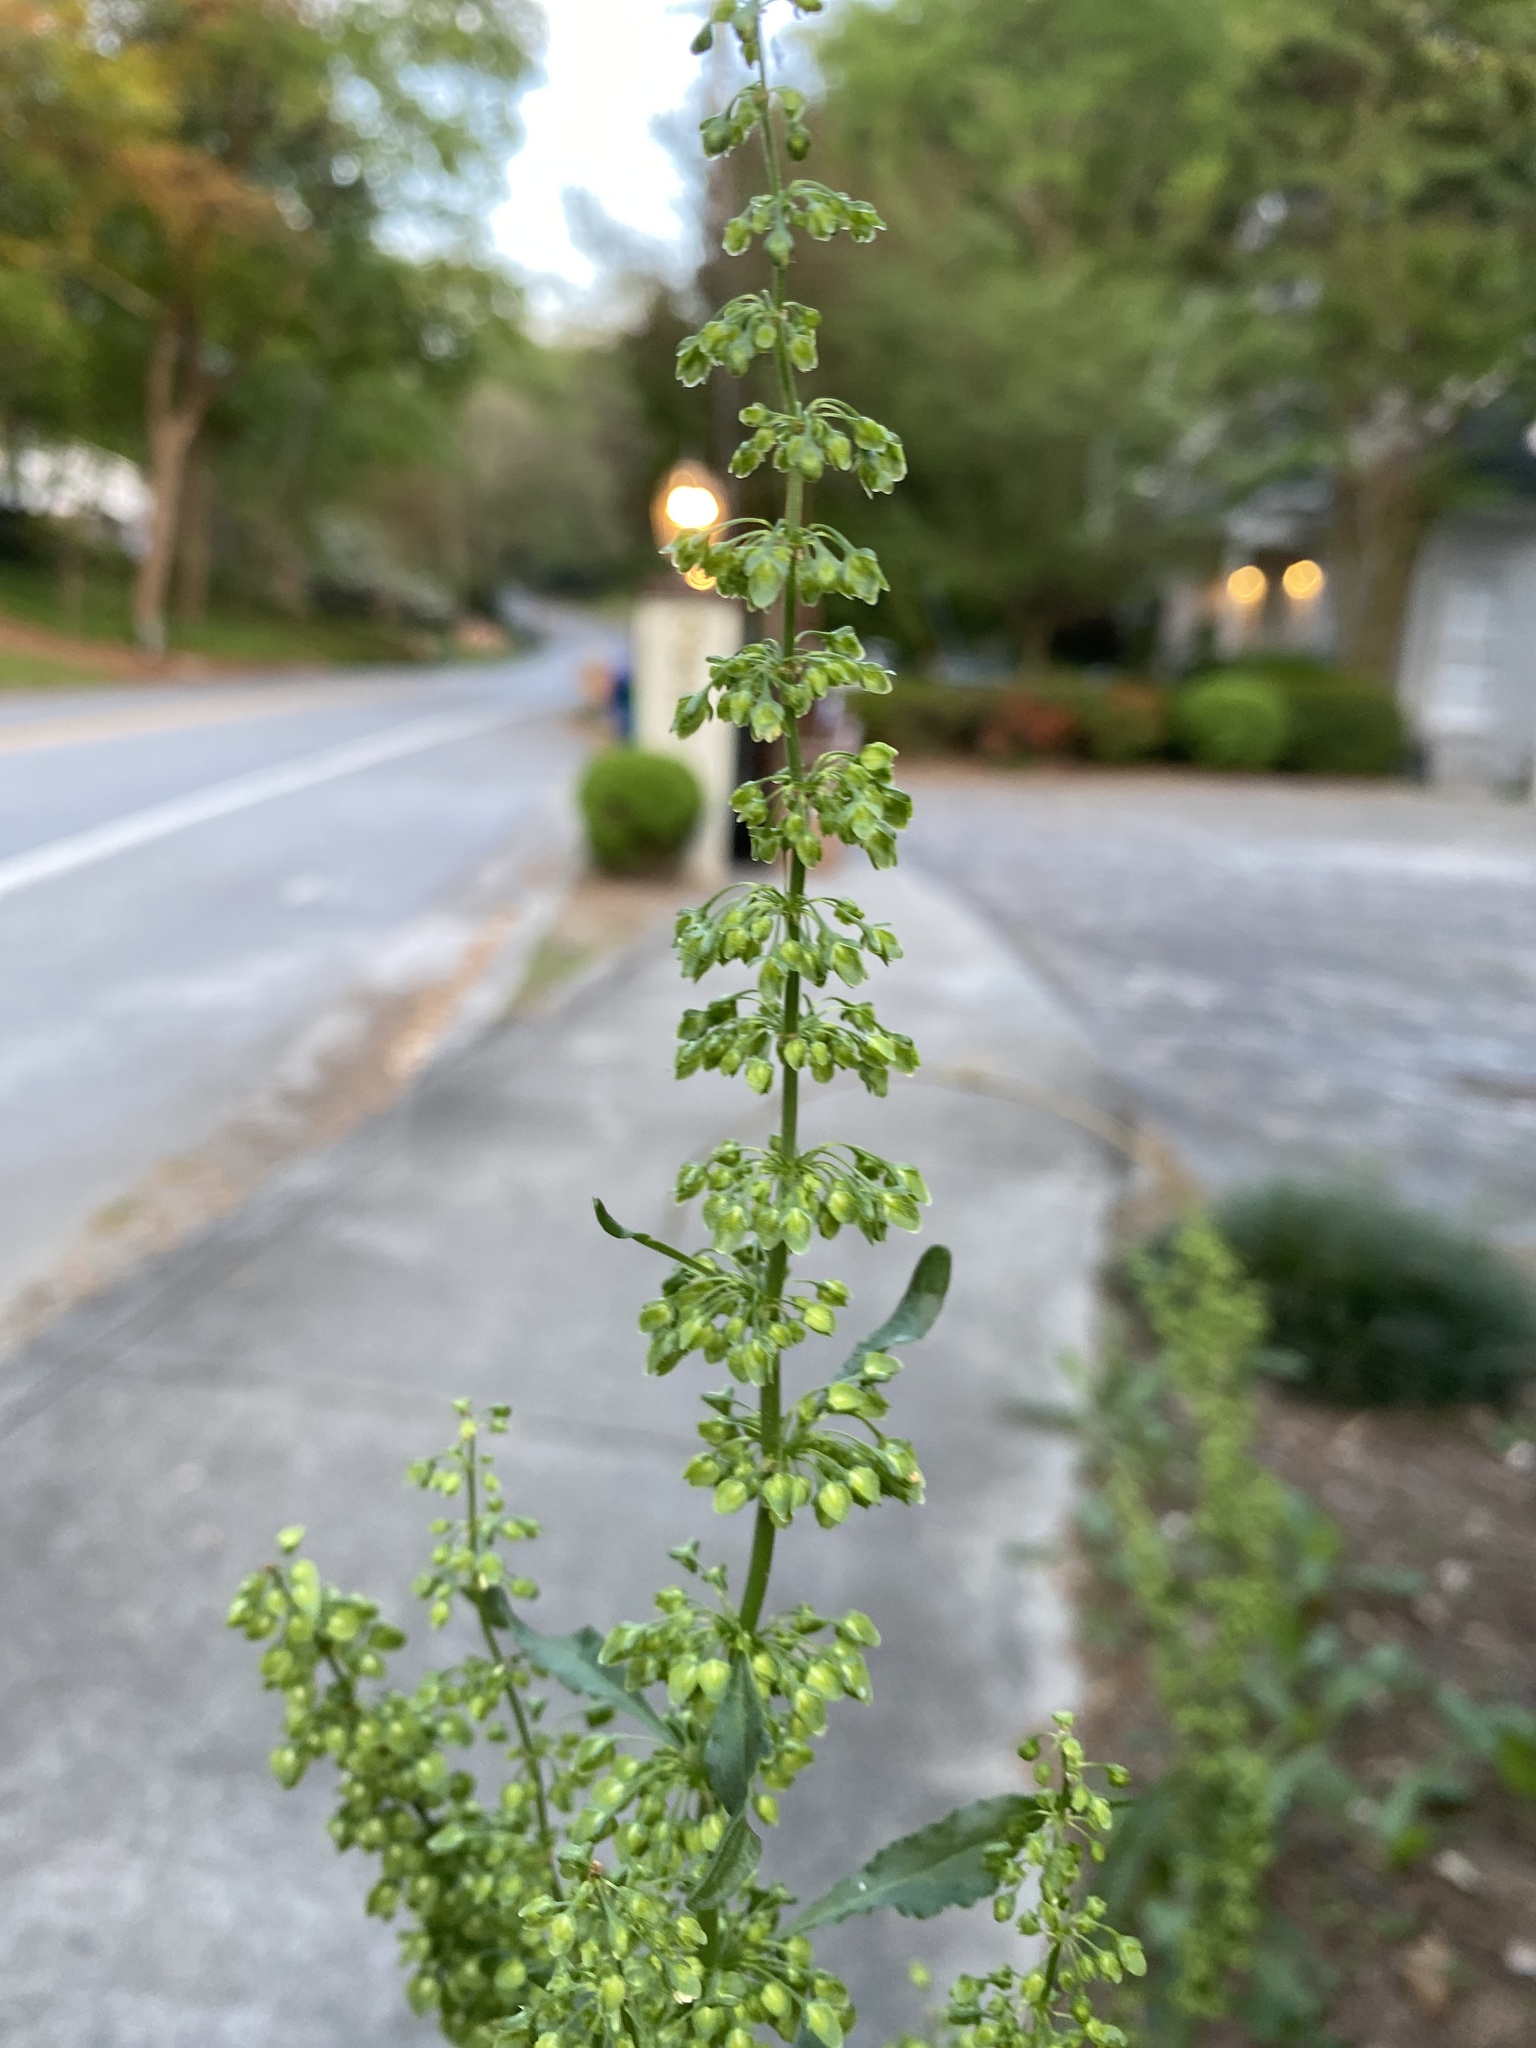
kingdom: Plantae
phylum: Tracheophyta
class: Magnoliopsida
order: Caryophyllales
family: Polygonaceae
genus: Rumex
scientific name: Rumex crispus
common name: Curled dock
